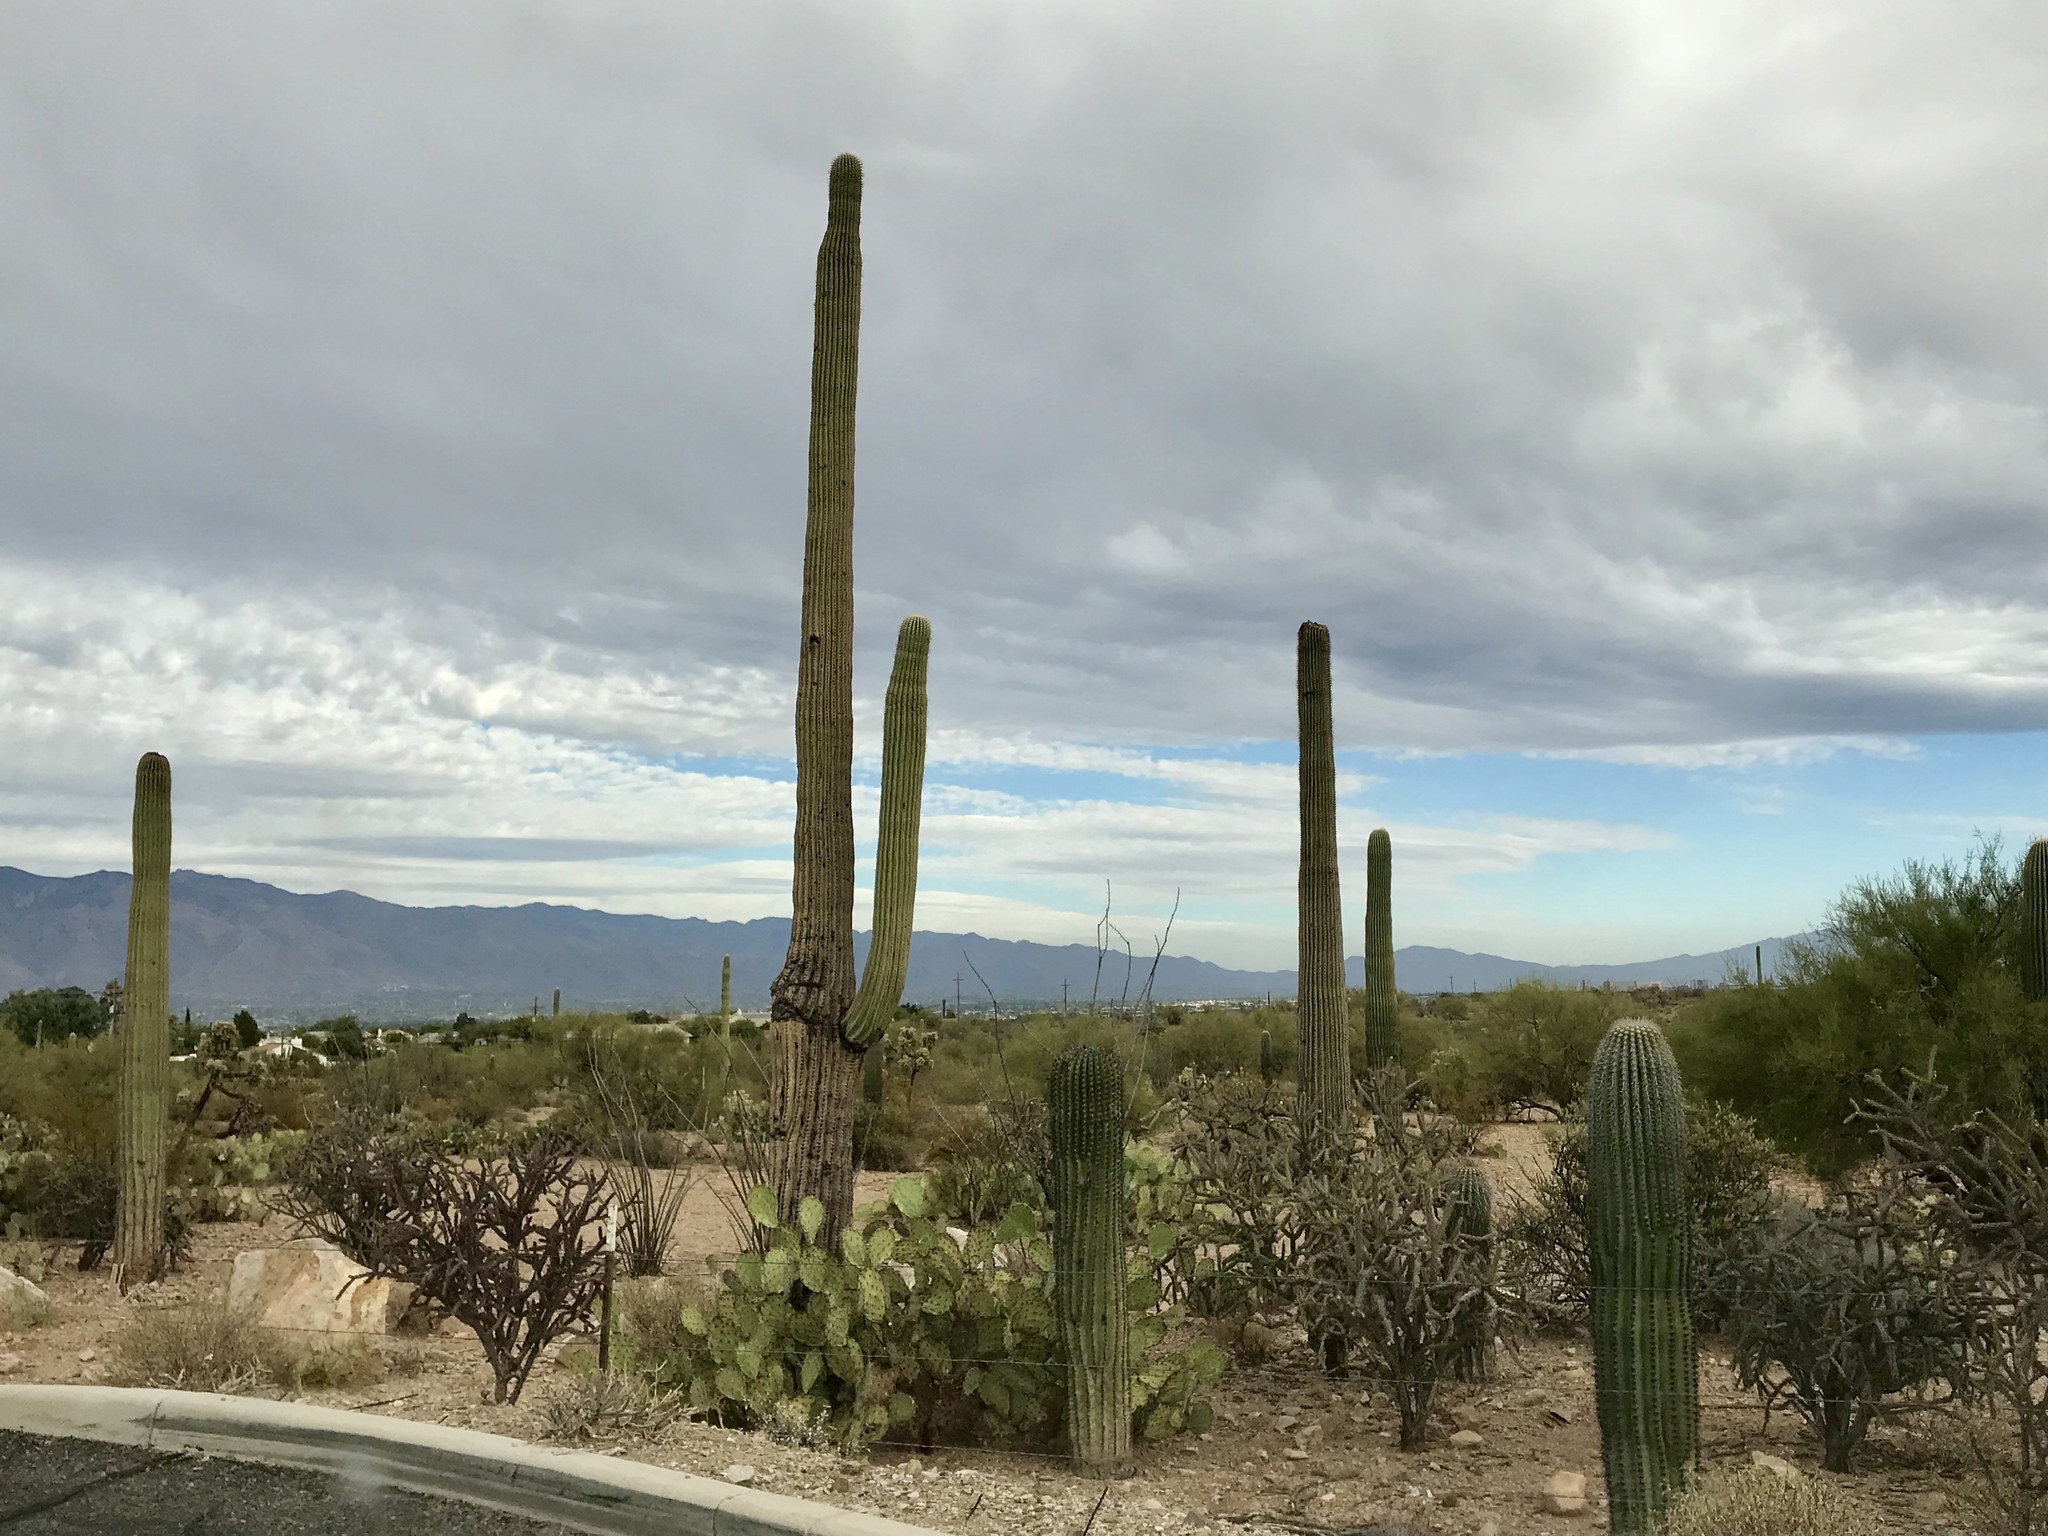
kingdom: Plantae
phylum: Tracheophyta
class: Magnoliopsida
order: Caryophyllales
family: Cactaceae
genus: Carnegiea
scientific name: Carnegiea gigantea
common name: Saguaro
